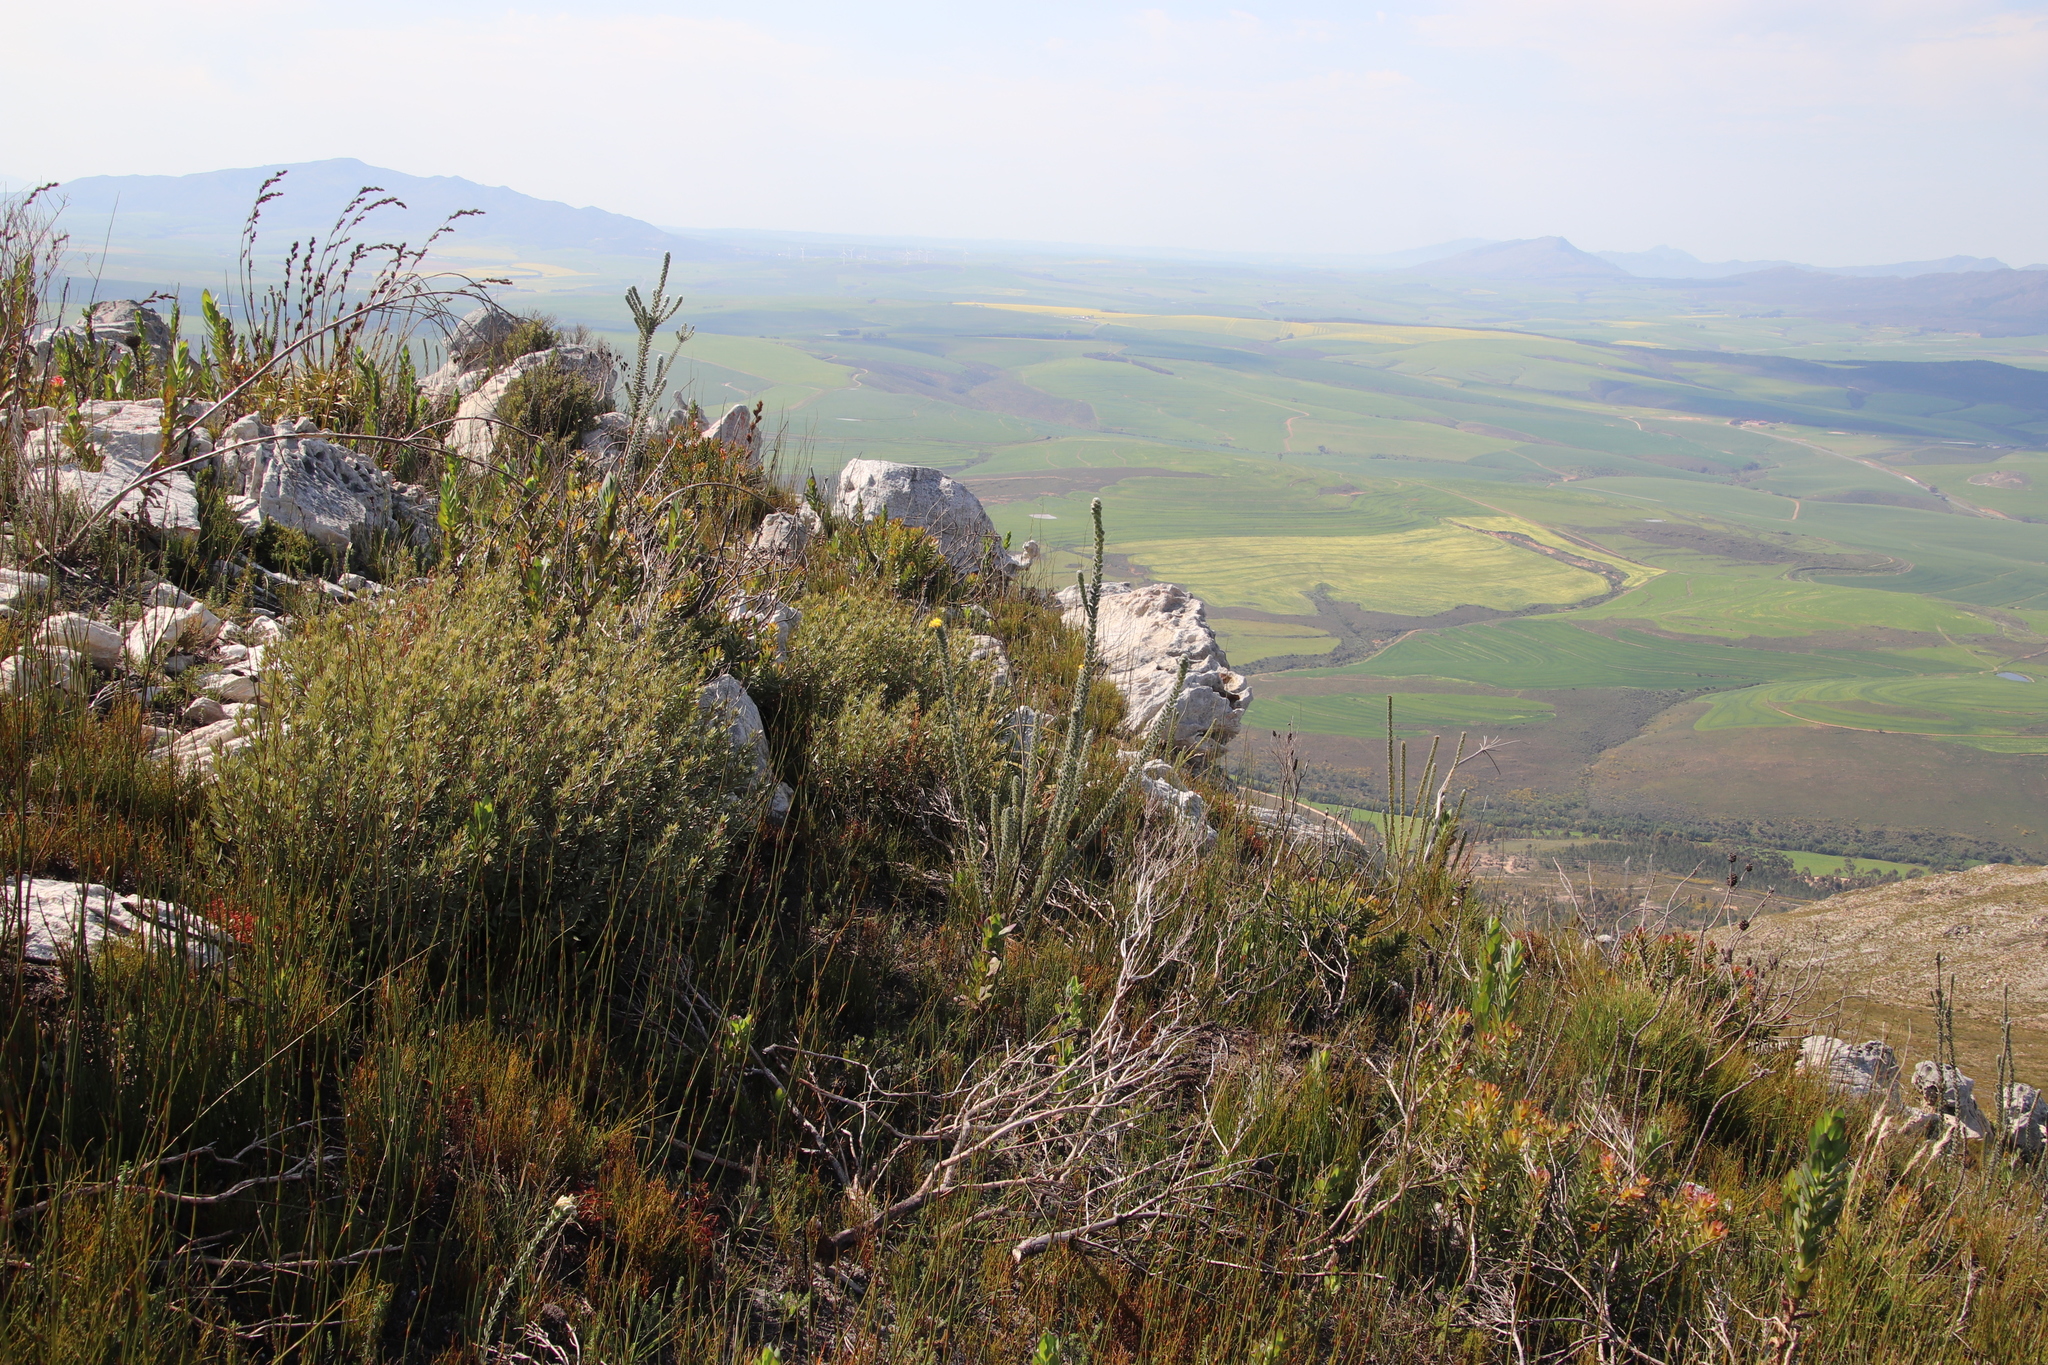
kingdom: Plantae
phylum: Tracheophyta
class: Magnoliopsida
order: Fabales
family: Fabaceae
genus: Liparia
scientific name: Liparia vestita
